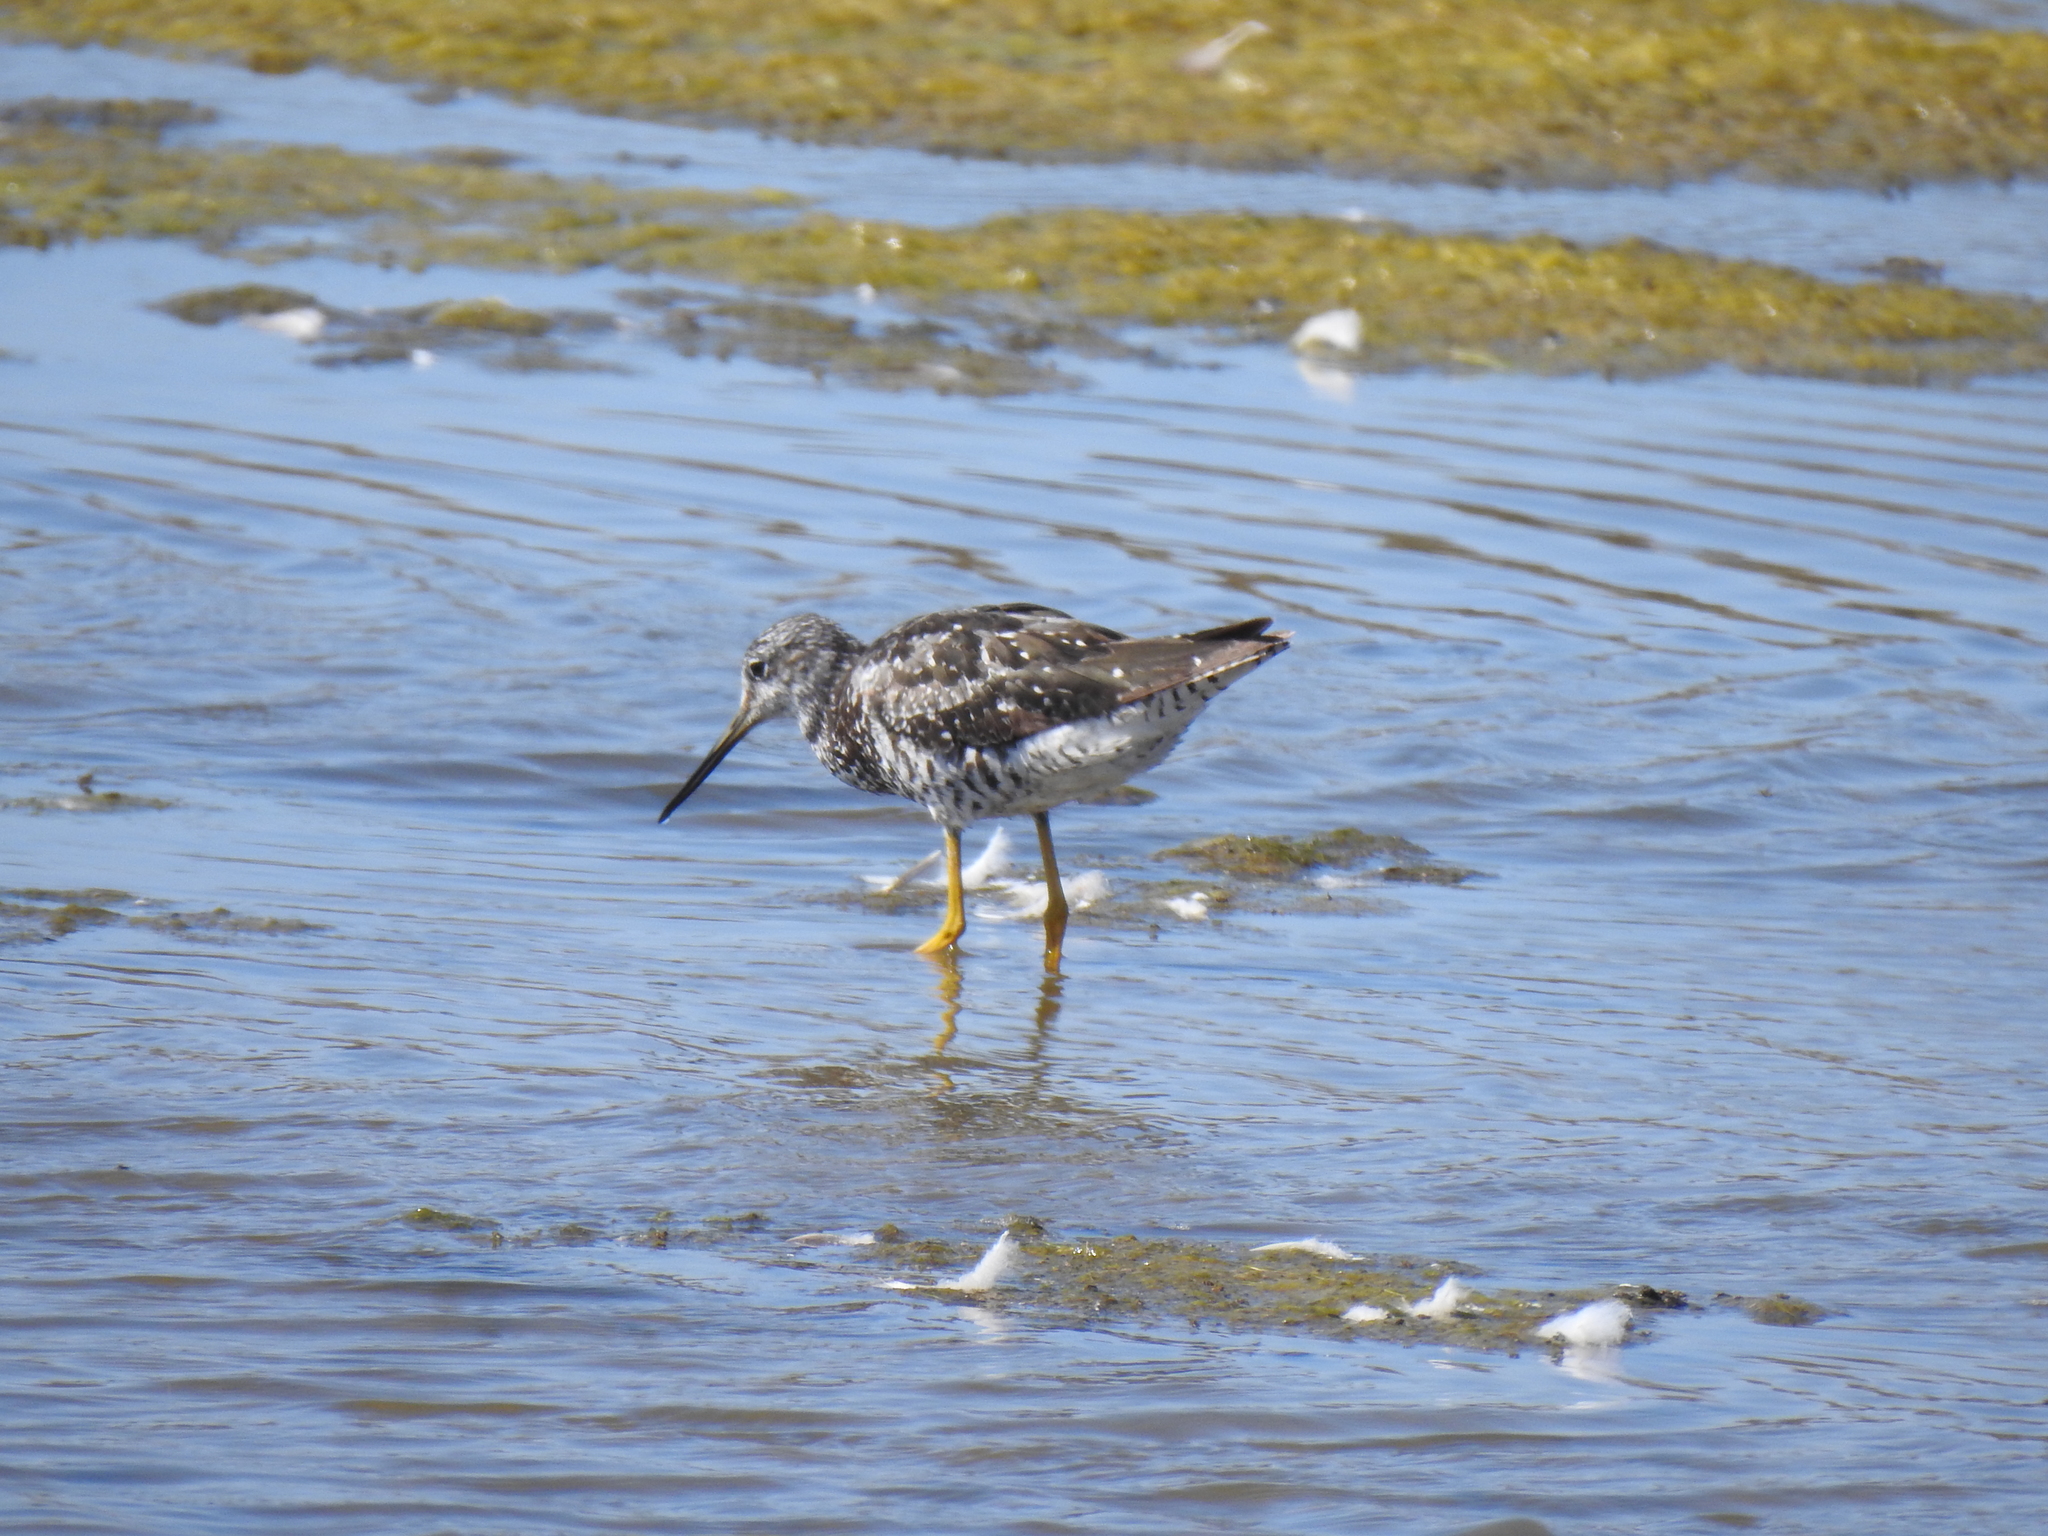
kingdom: Animalia
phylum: Chordata
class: Aves
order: Charadriiformes
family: Scolopacidae
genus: Tringa
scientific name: Tringa melanoleuca
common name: Greater yellowlegs
